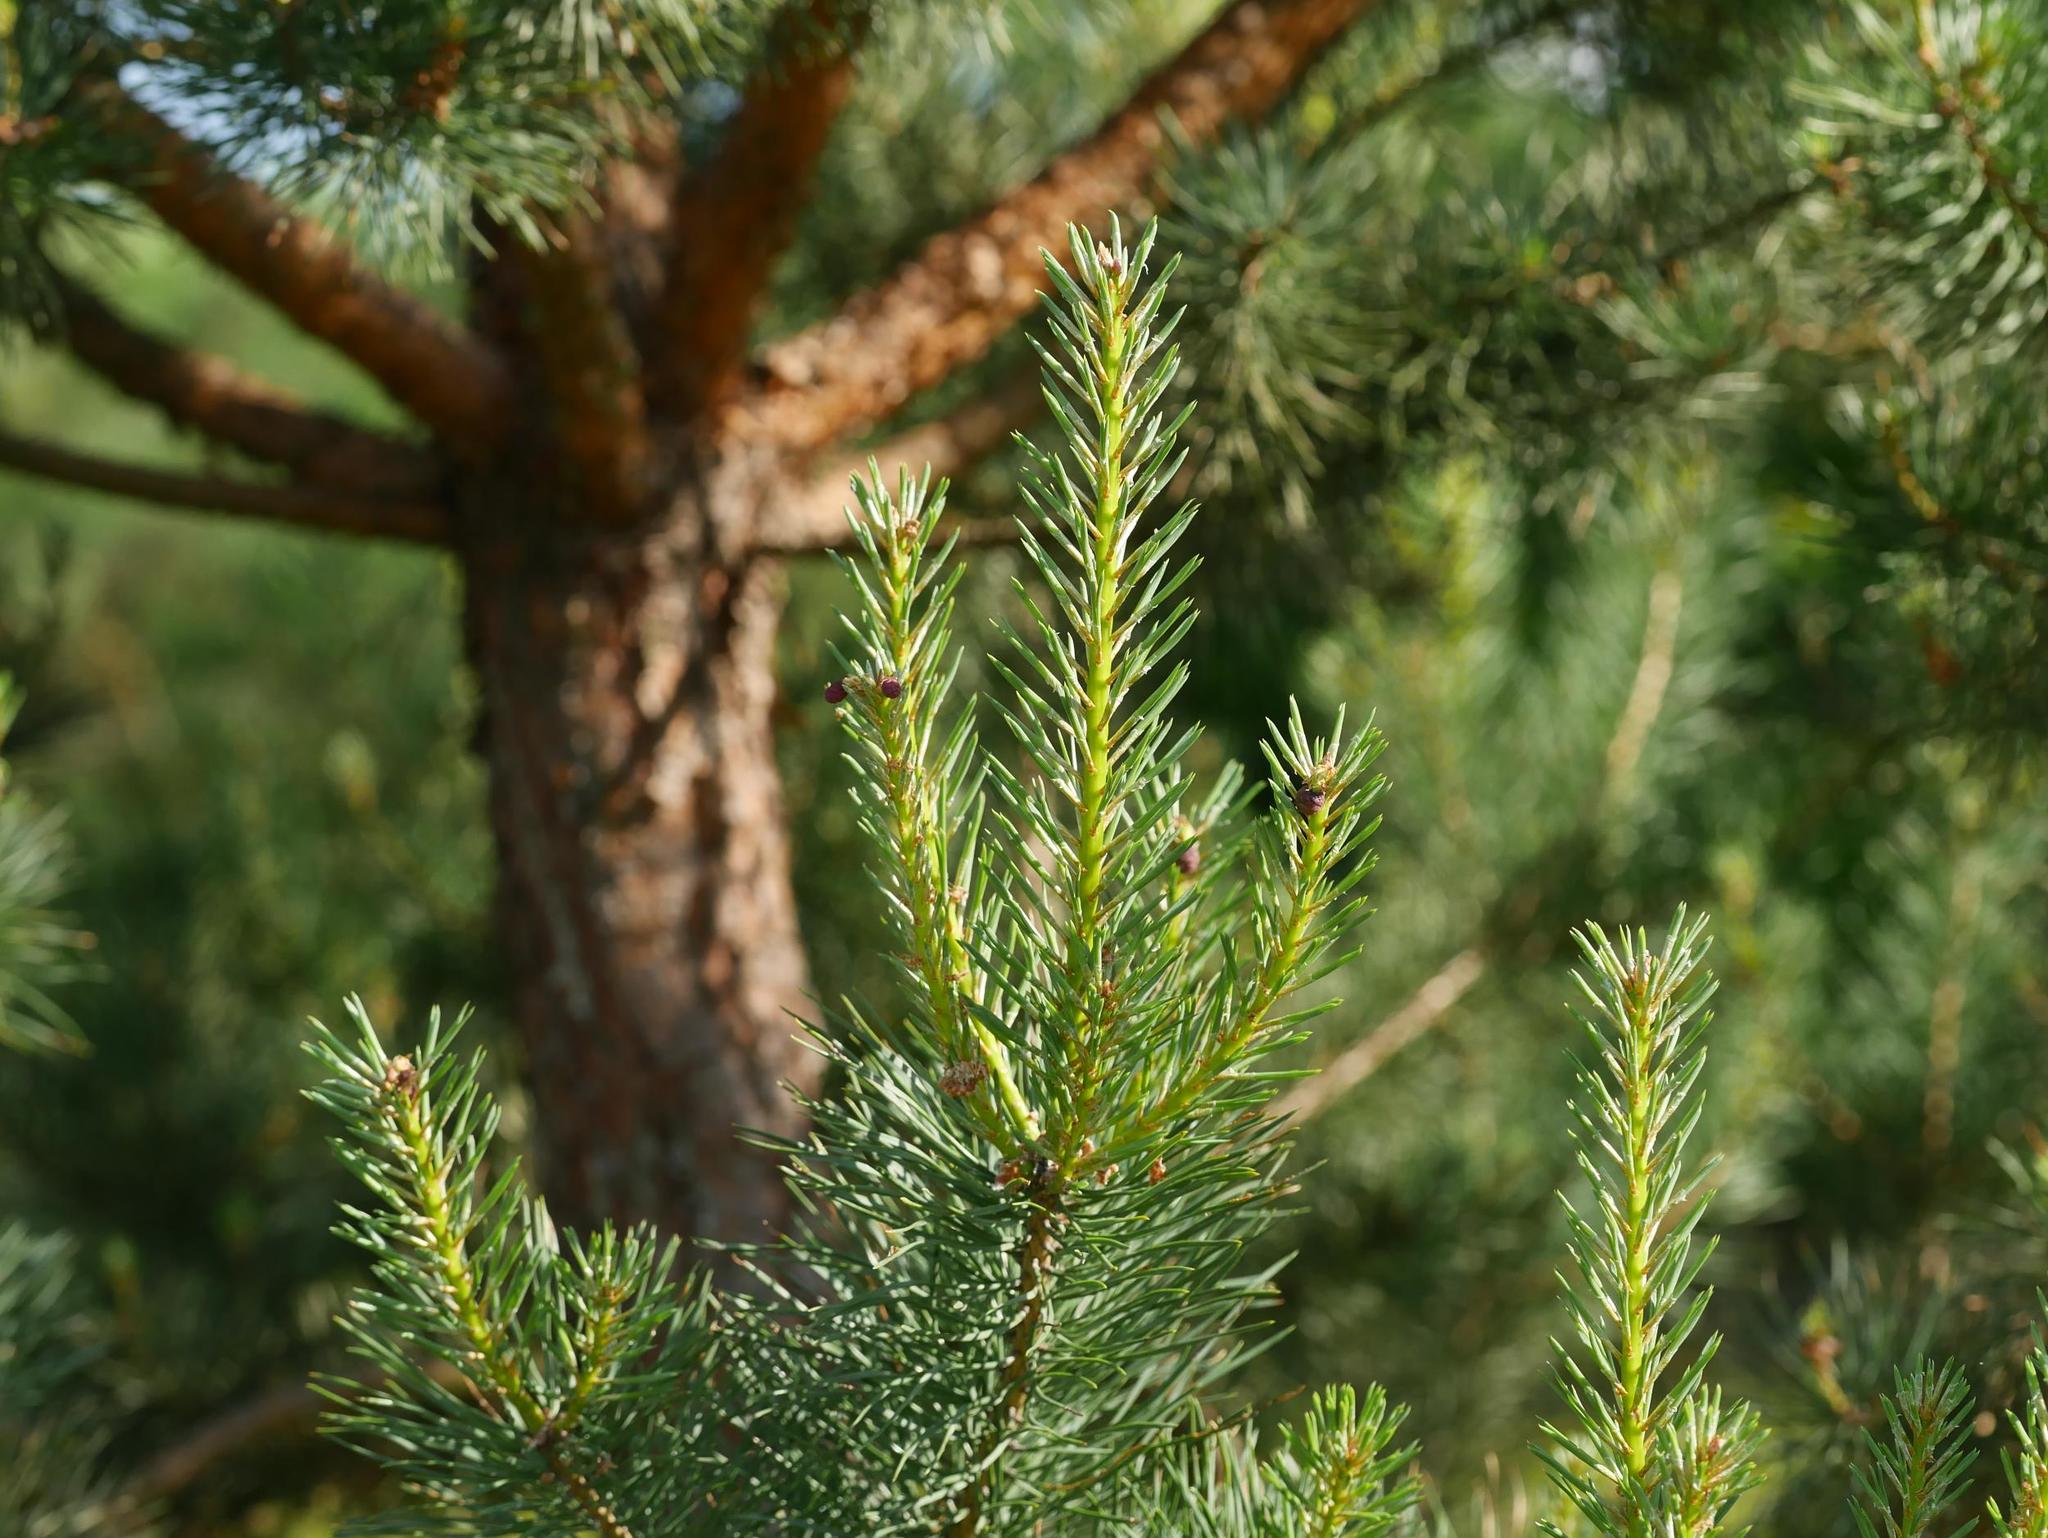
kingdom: Plantae
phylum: Tracheophyta
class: Pinopsida
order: Pinales
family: Pinaceae
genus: Pinus
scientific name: Pinus sylvestris
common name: Scots pine
